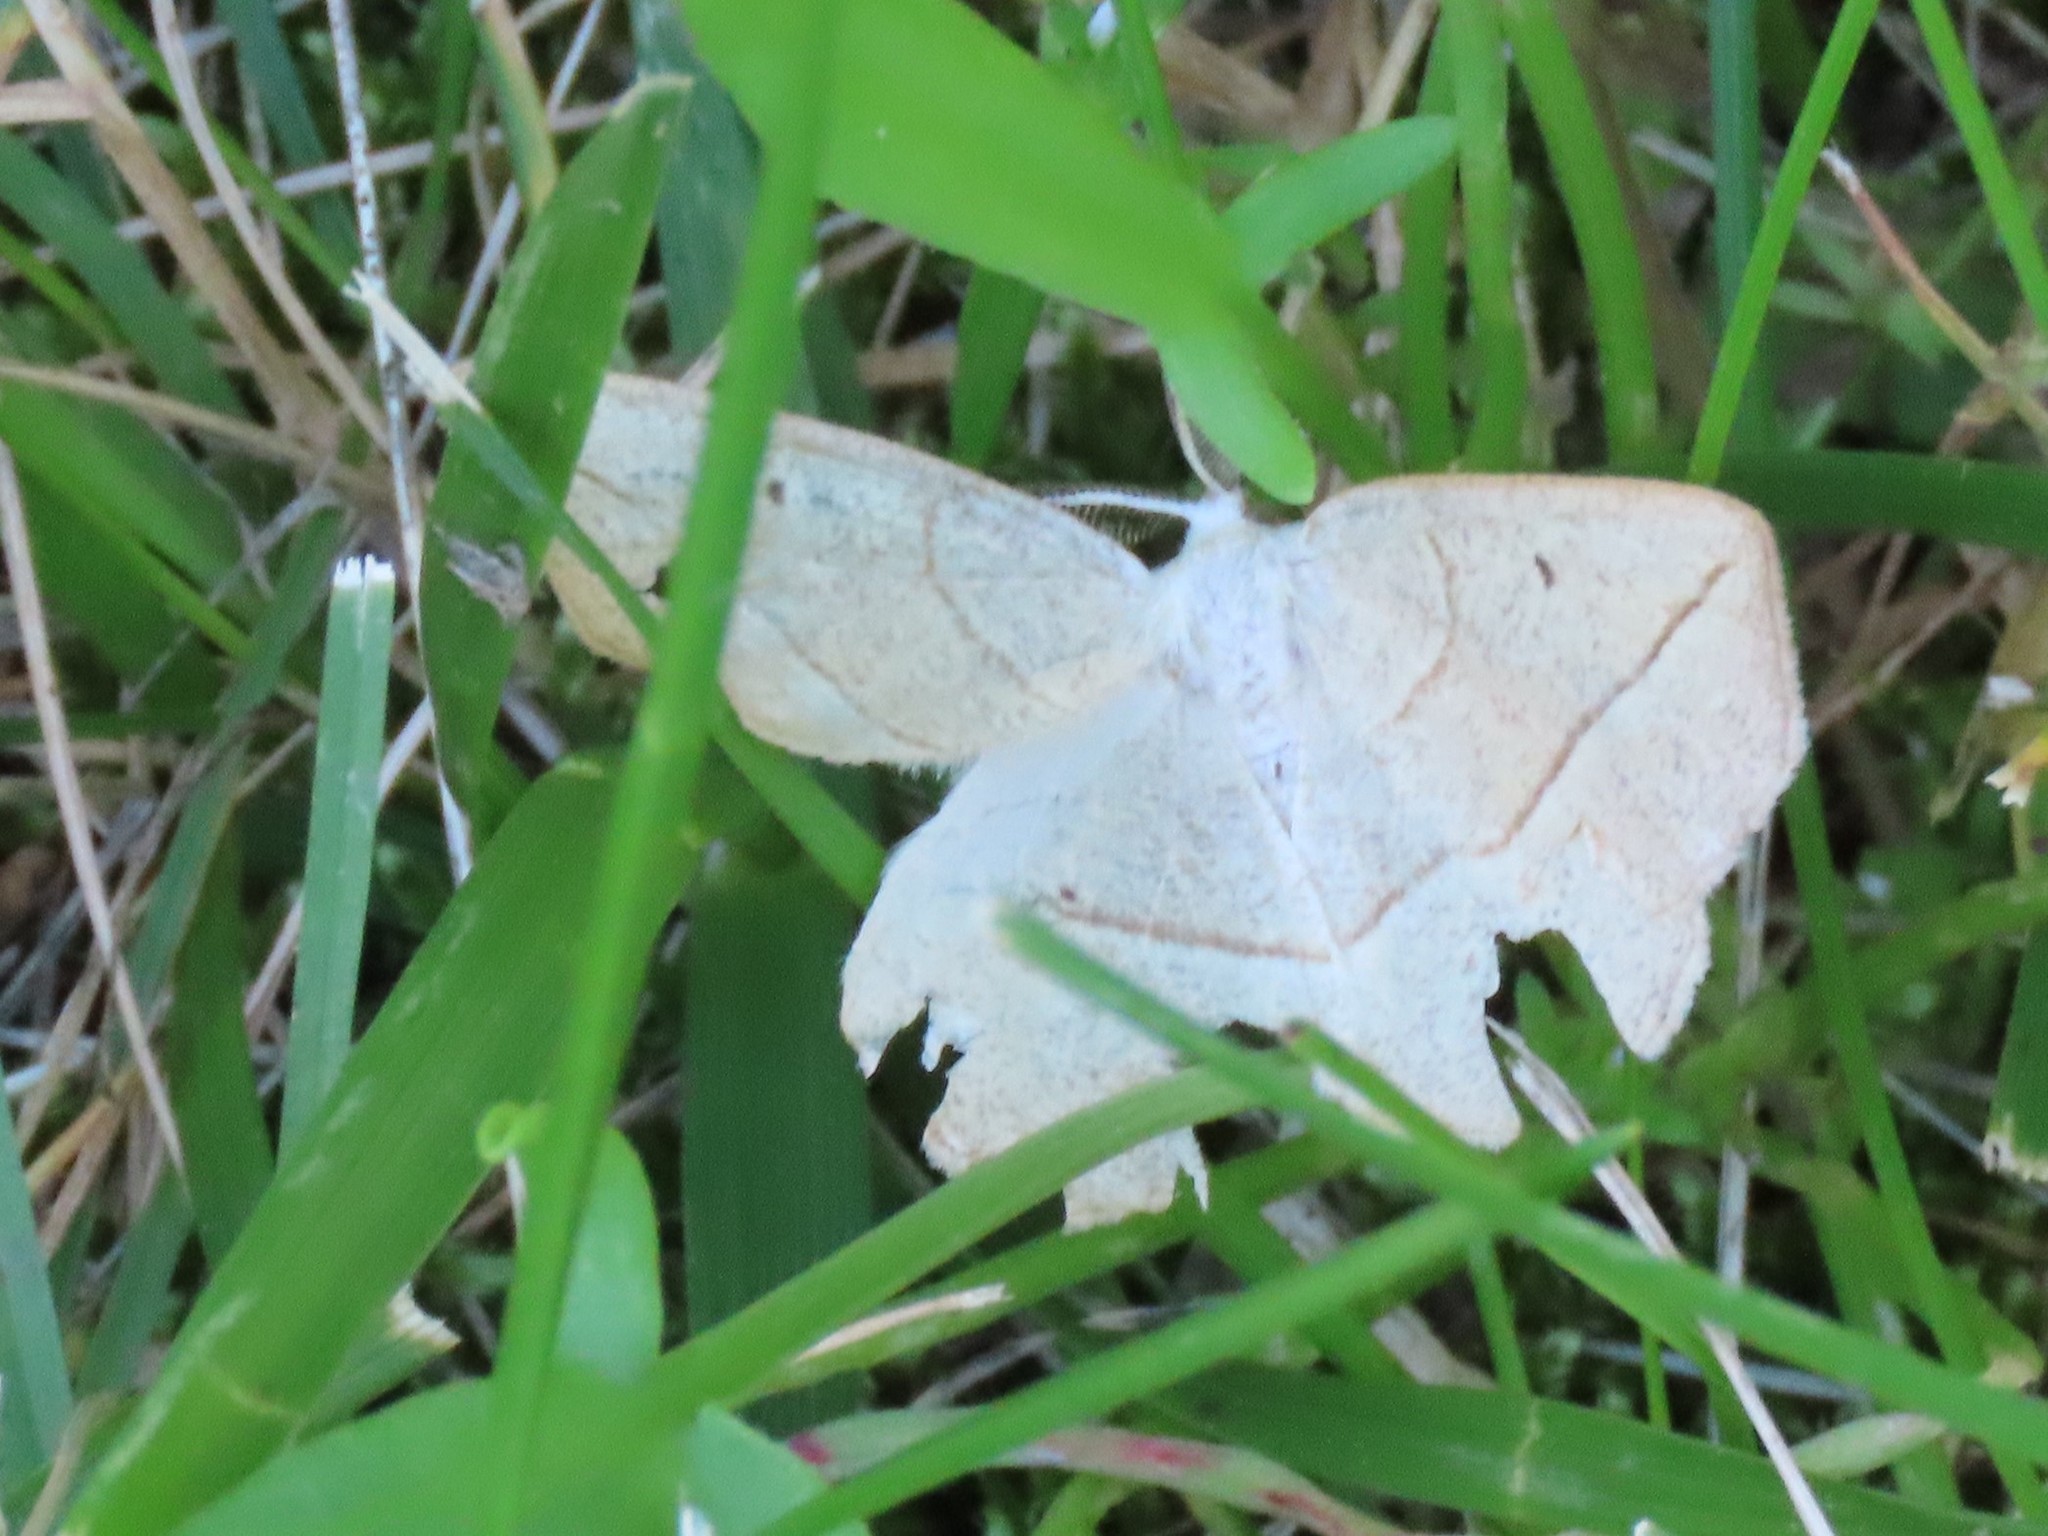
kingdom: Animalia
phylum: Arthropoda
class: Insecta
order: Lepidoptera
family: Geometridae
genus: Eusarca
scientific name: Eusarca confusaria
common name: Confused eusarca
